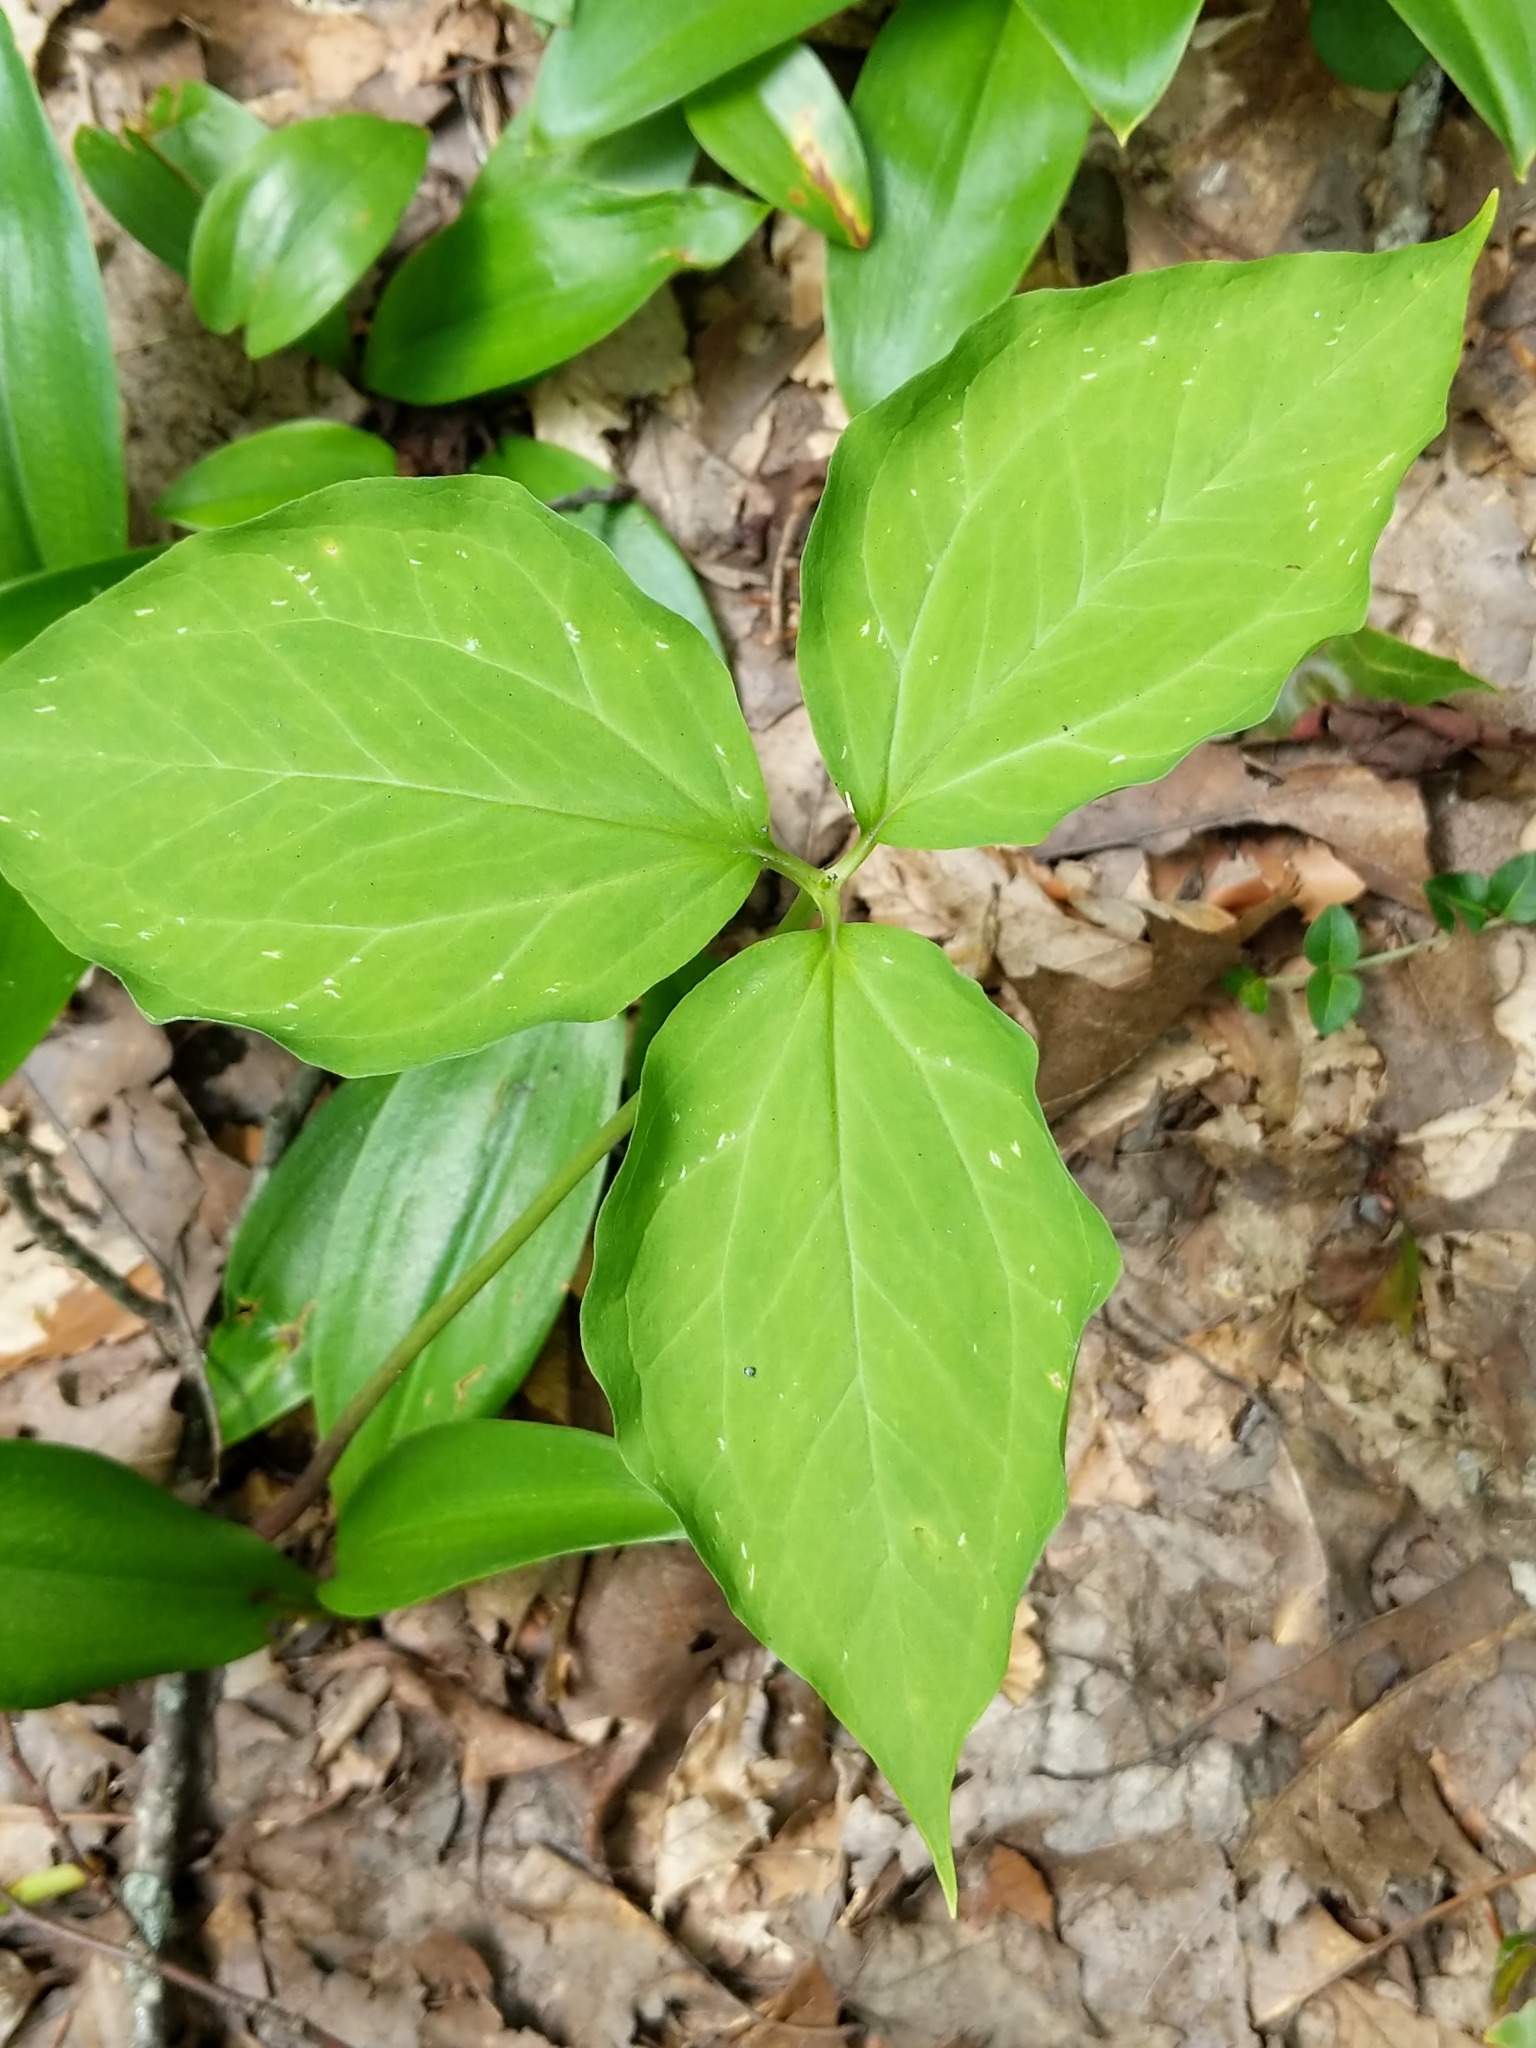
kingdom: Plantae
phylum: Tracheophyta
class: Liliopsida
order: Liliales
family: Melanthiaceae
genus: Trillium
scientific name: Trillium undulatum
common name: Paint trillium
